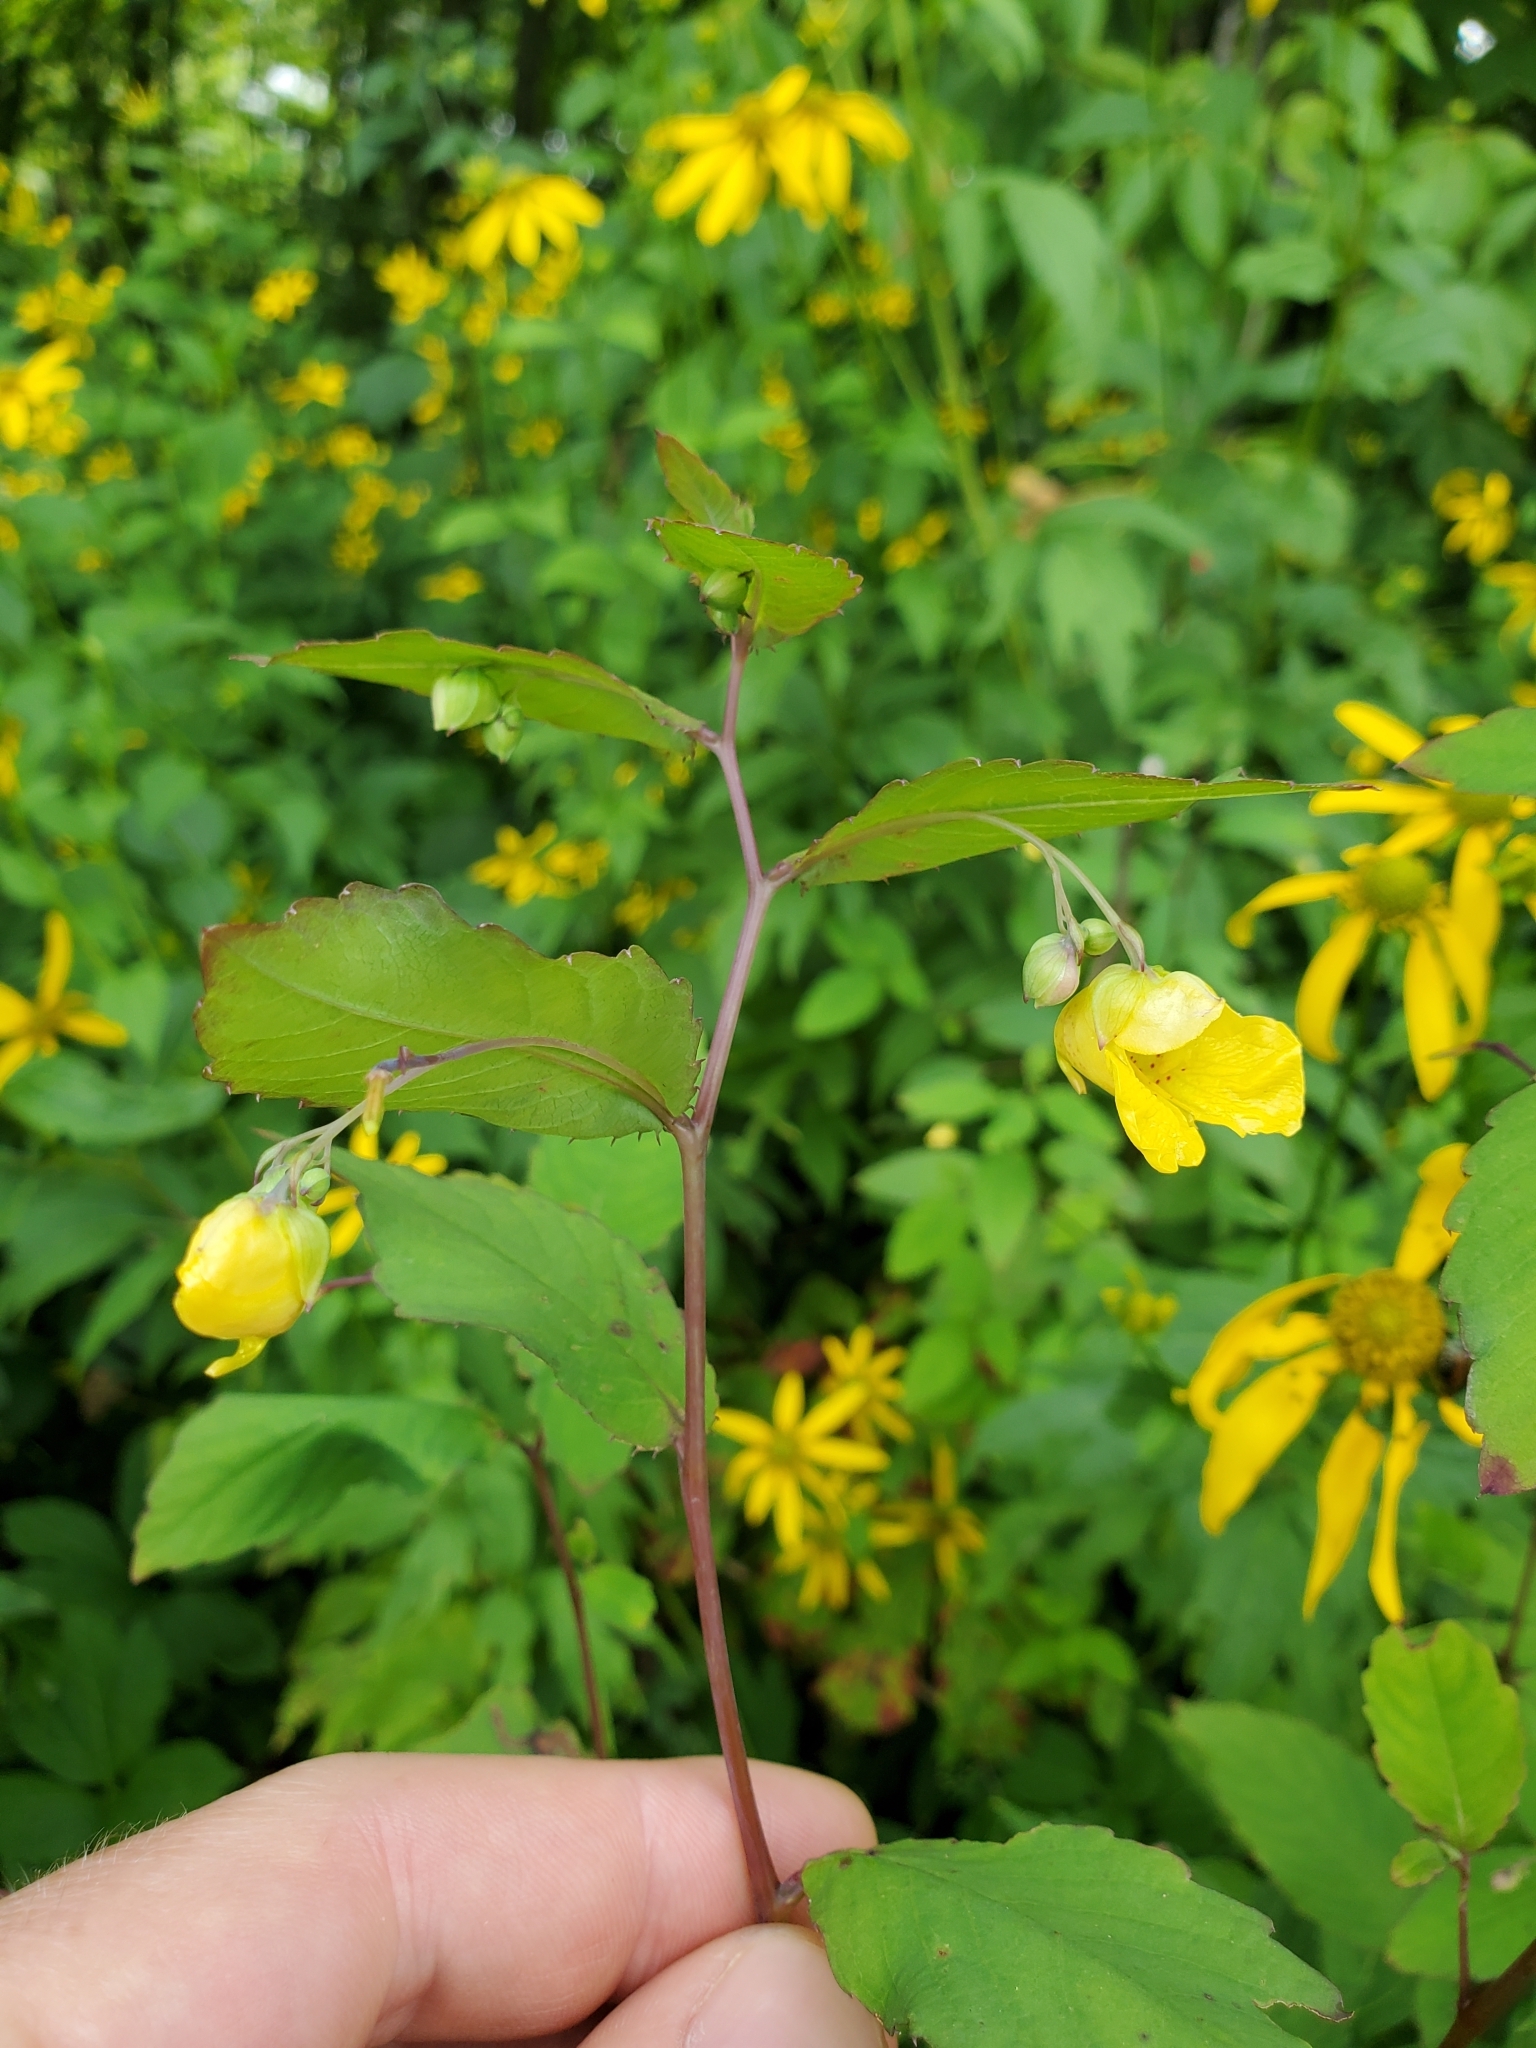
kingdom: Plantae
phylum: Tracheophyta
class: Magnoliopsida
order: Ericales
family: Balsaminaceae
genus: Impatiens
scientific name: Impatiens pallida
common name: Pale snapweed
